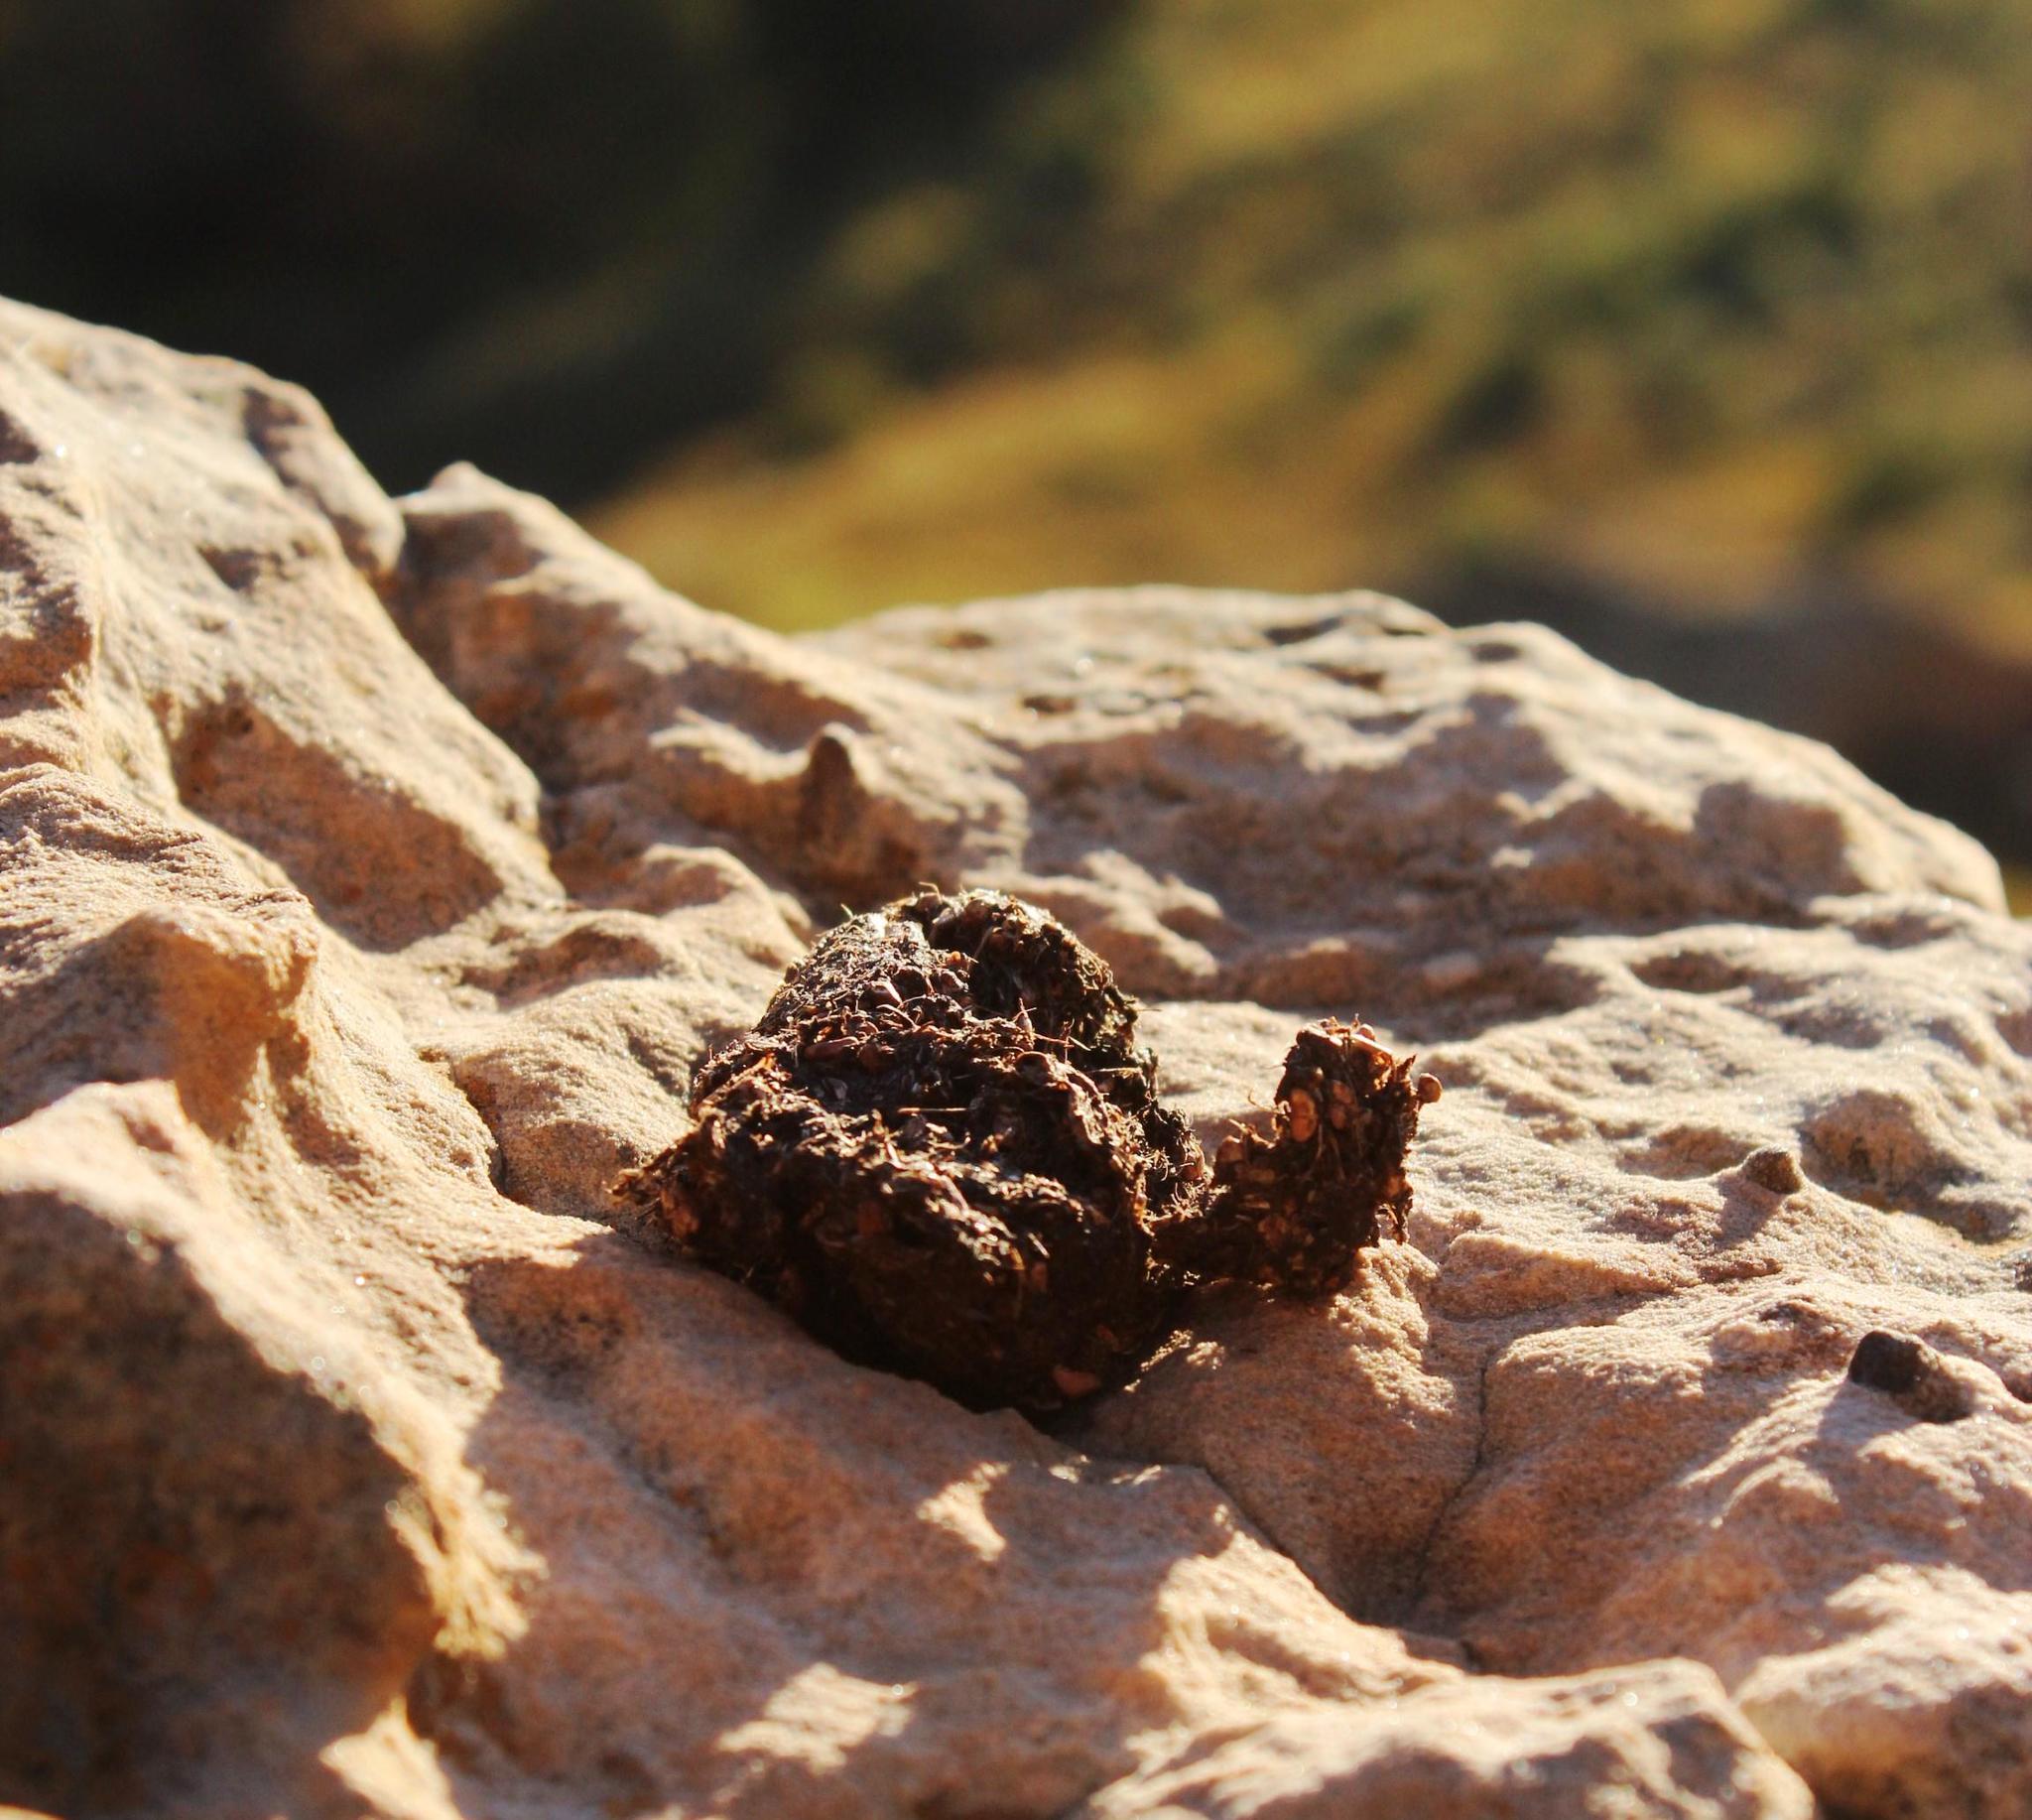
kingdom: Animalia
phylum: Chordata
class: Mammalia
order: Primates
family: Cercopithecidae
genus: Papio
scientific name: Papio ursinus
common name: Chacma baboon
